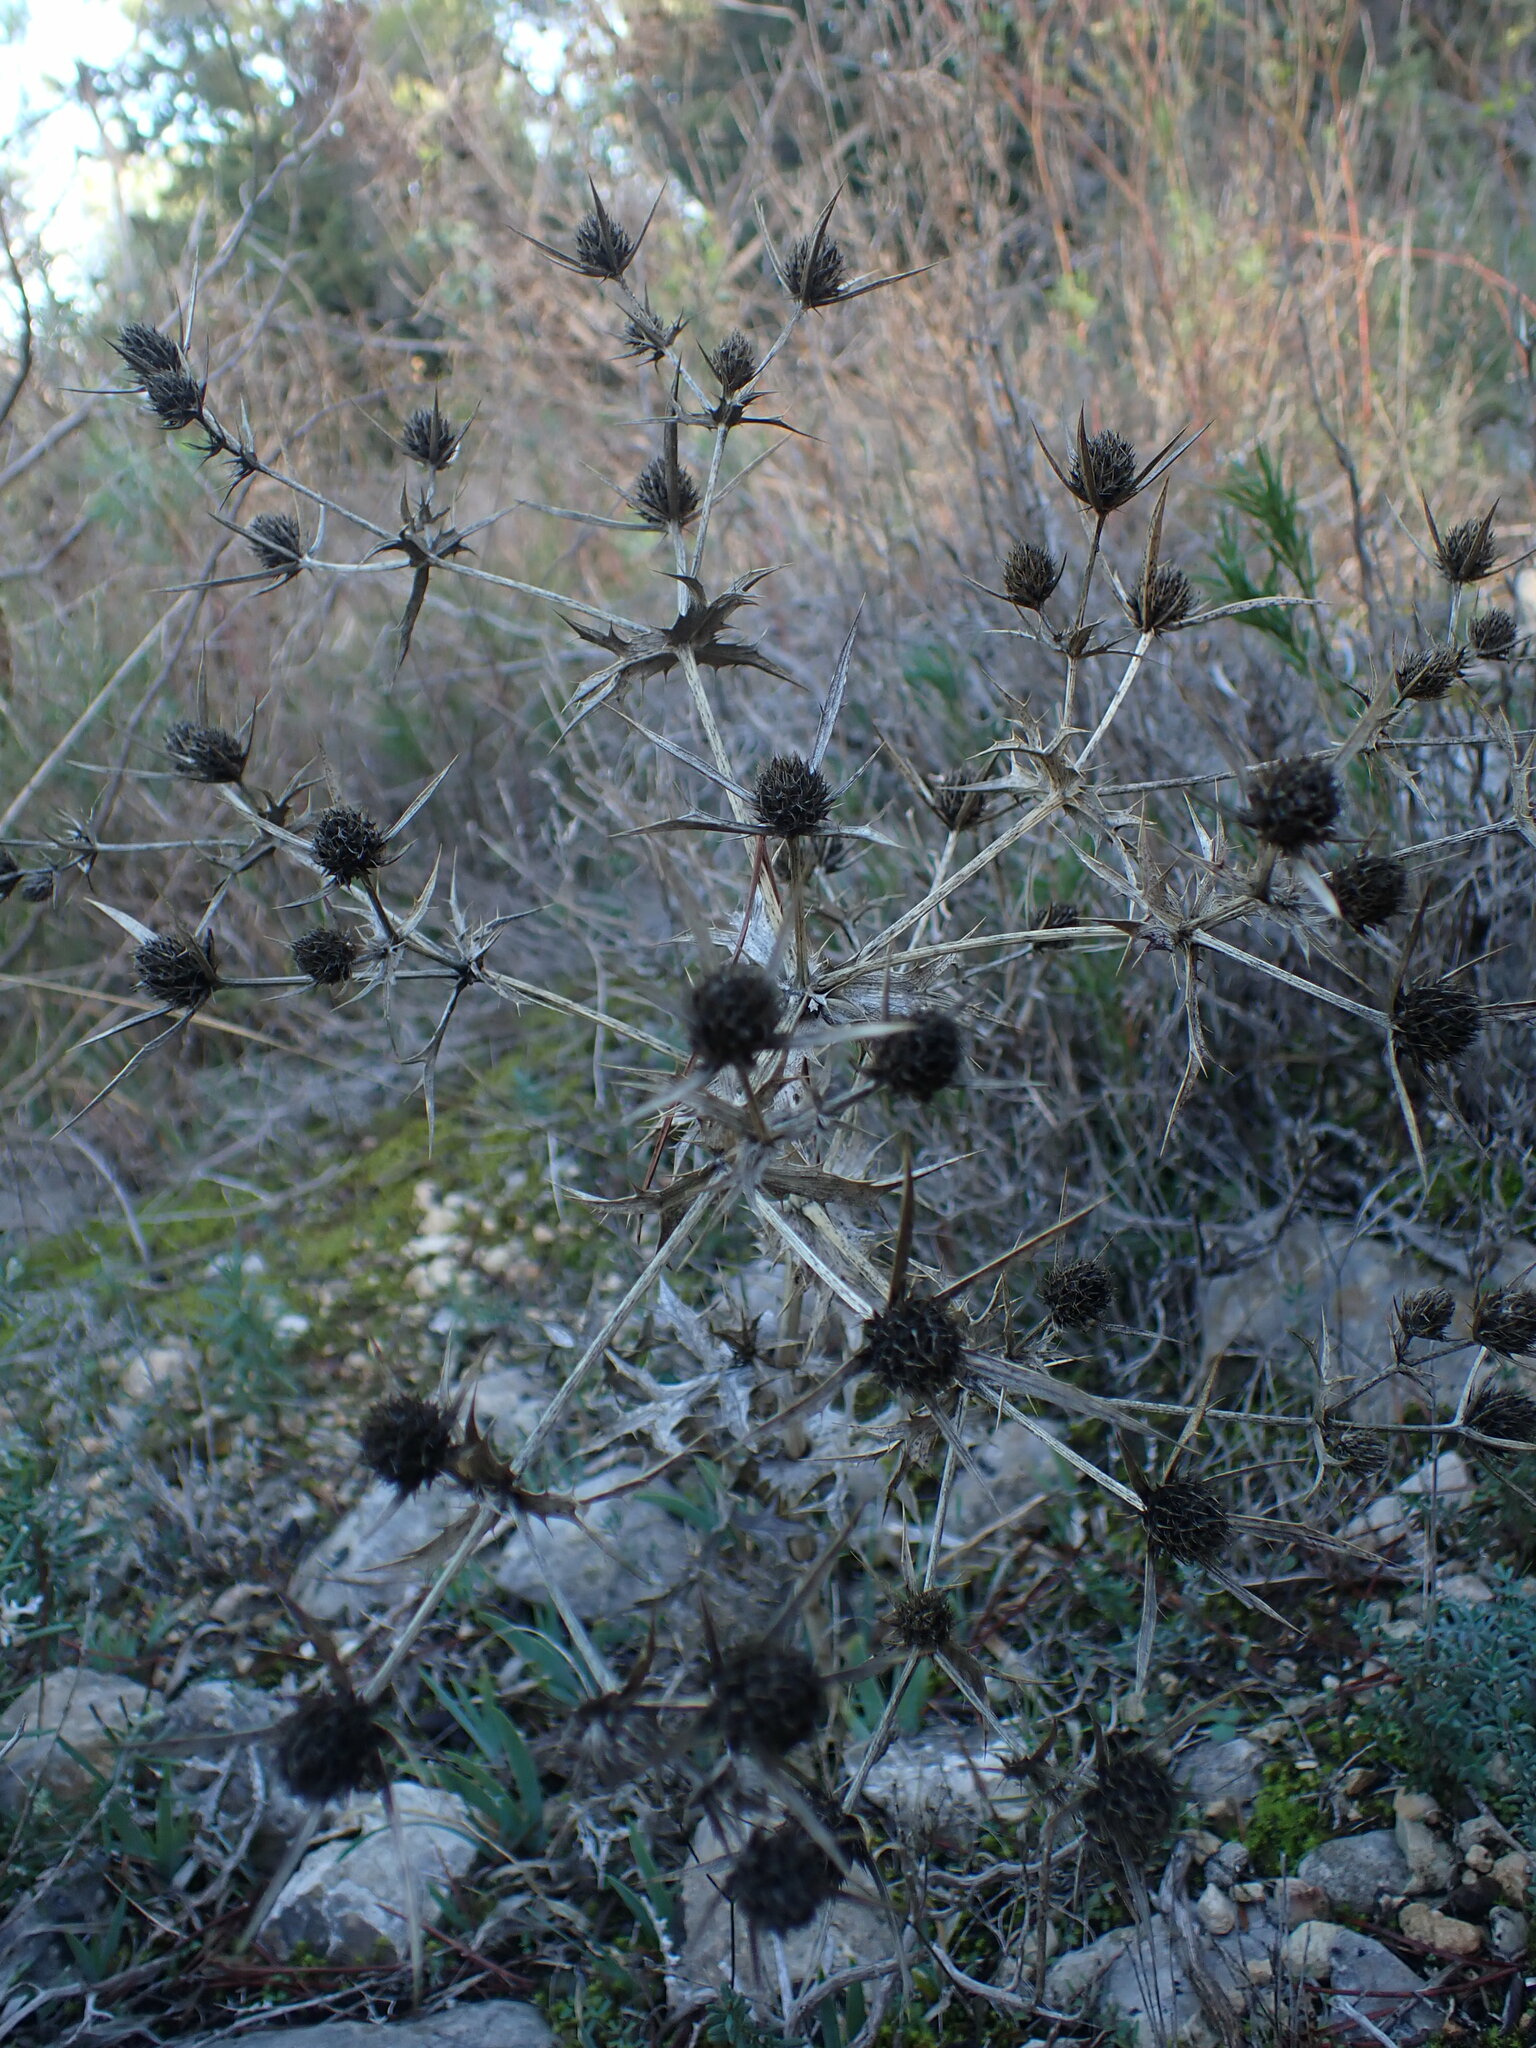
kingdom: Plantae
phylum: Tracheophyta
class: Magnoliopsida
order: Apiales
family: Apiaceae
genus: Eryngium
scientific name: Eryngium campestre
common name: Field eryngo
